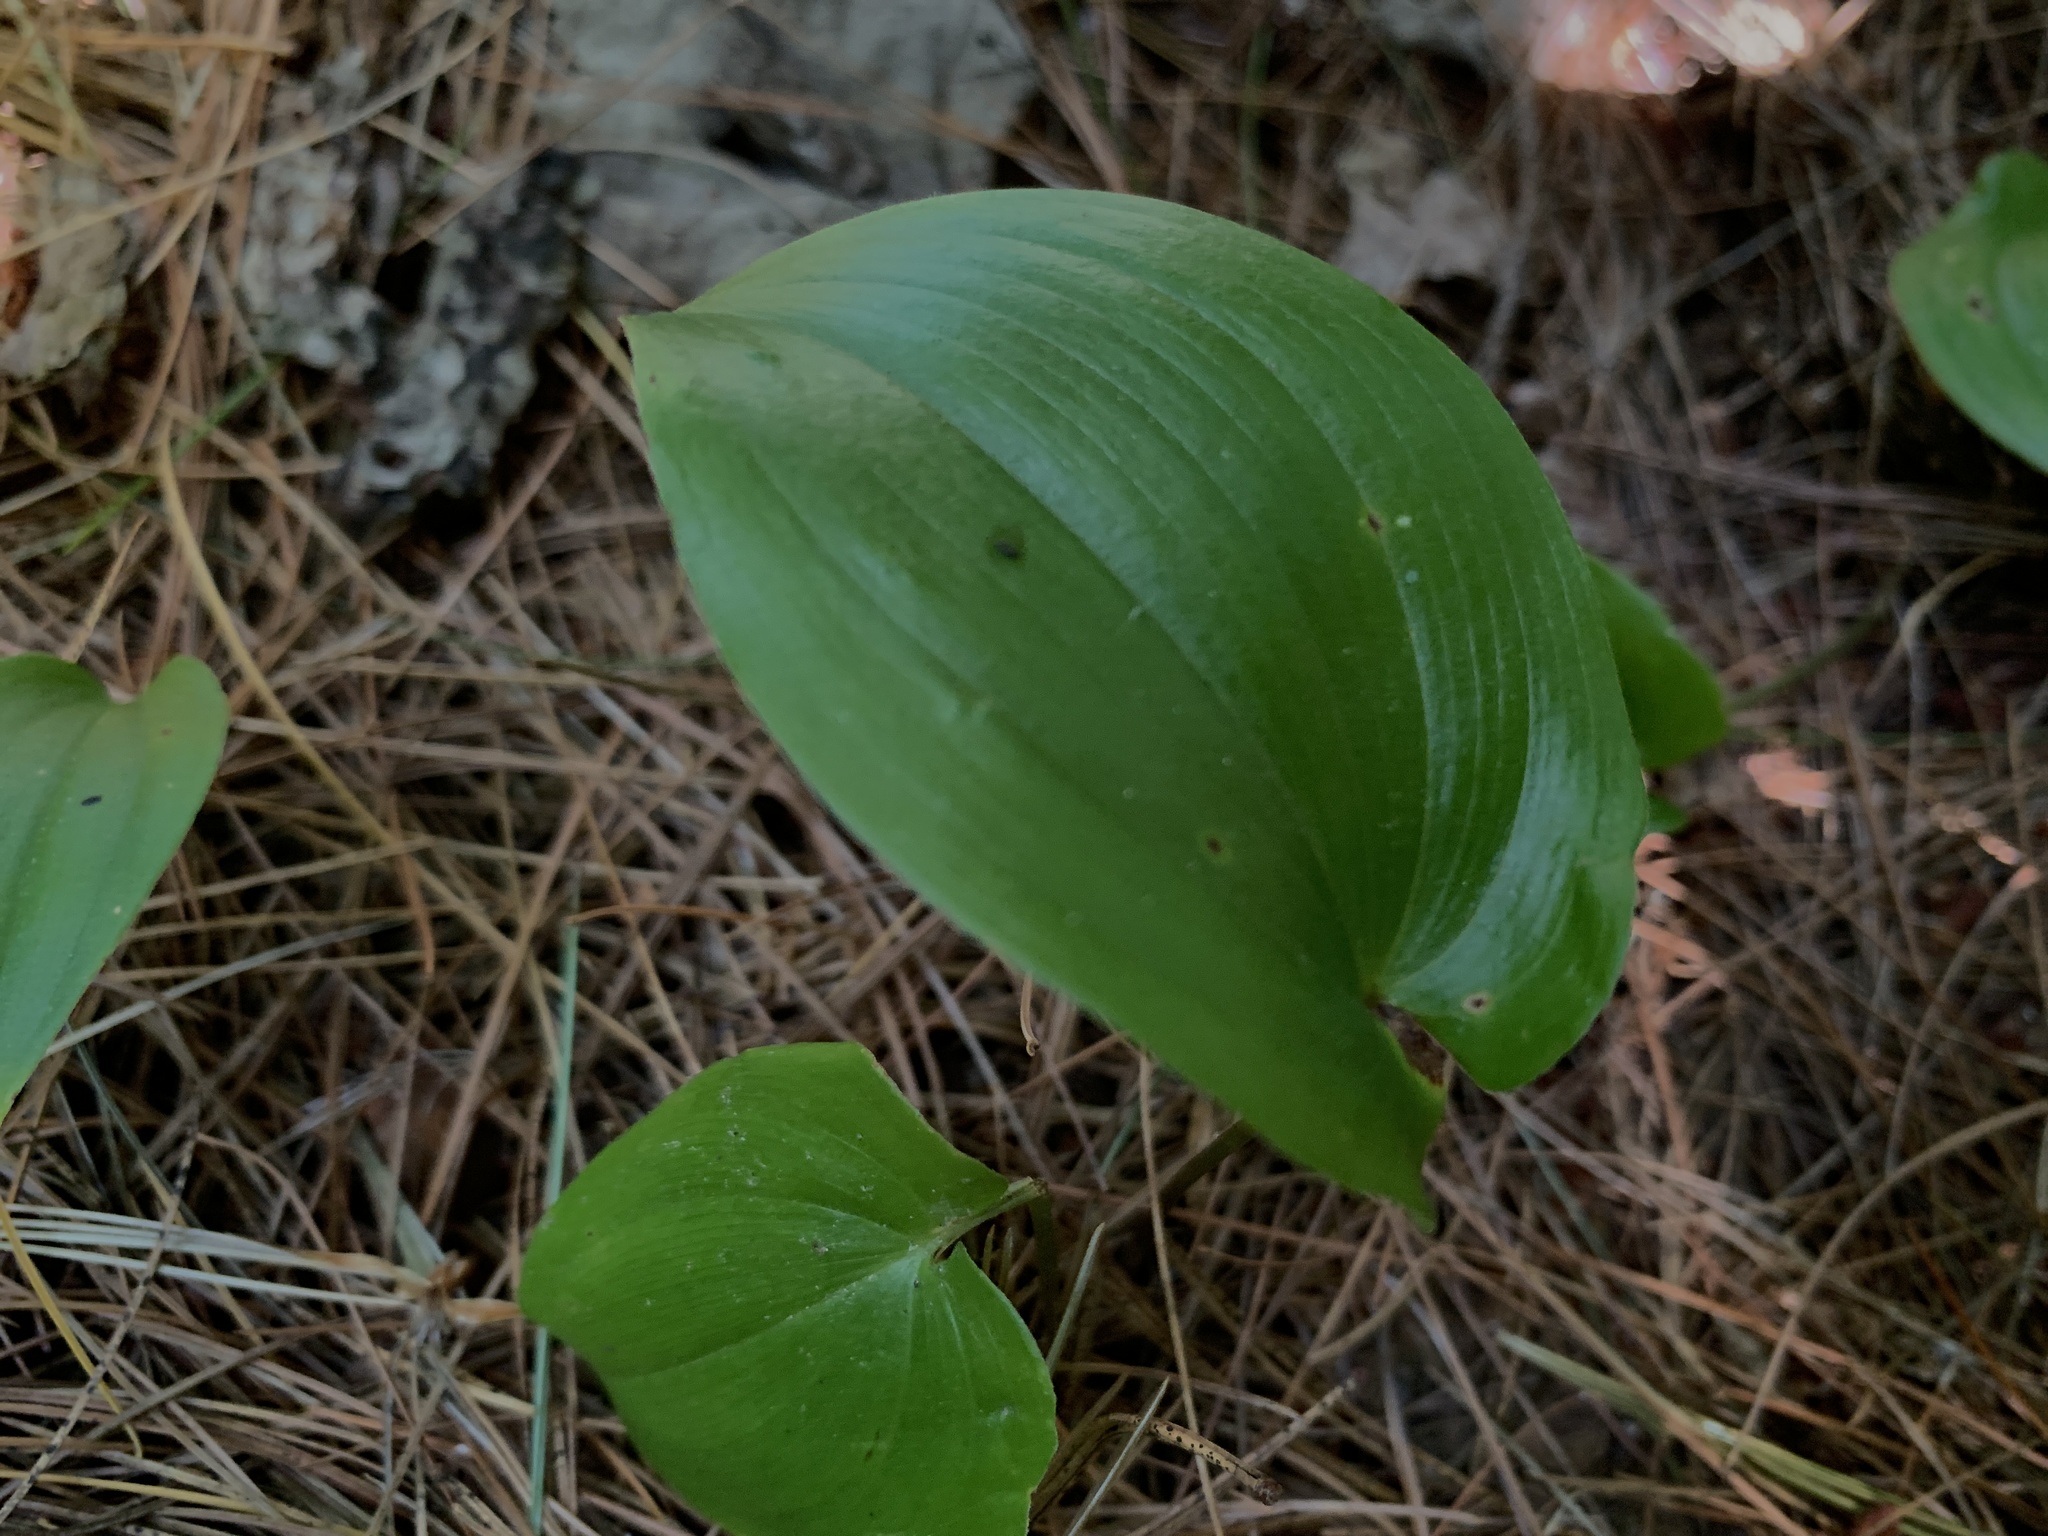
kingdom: Plantae
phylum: Tracheophyta
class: Liliopsida
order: Asparagales
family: Asparagaceae
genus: Maianthemum
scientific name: Maianthemum canadense
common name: False lily-of-the-valley
